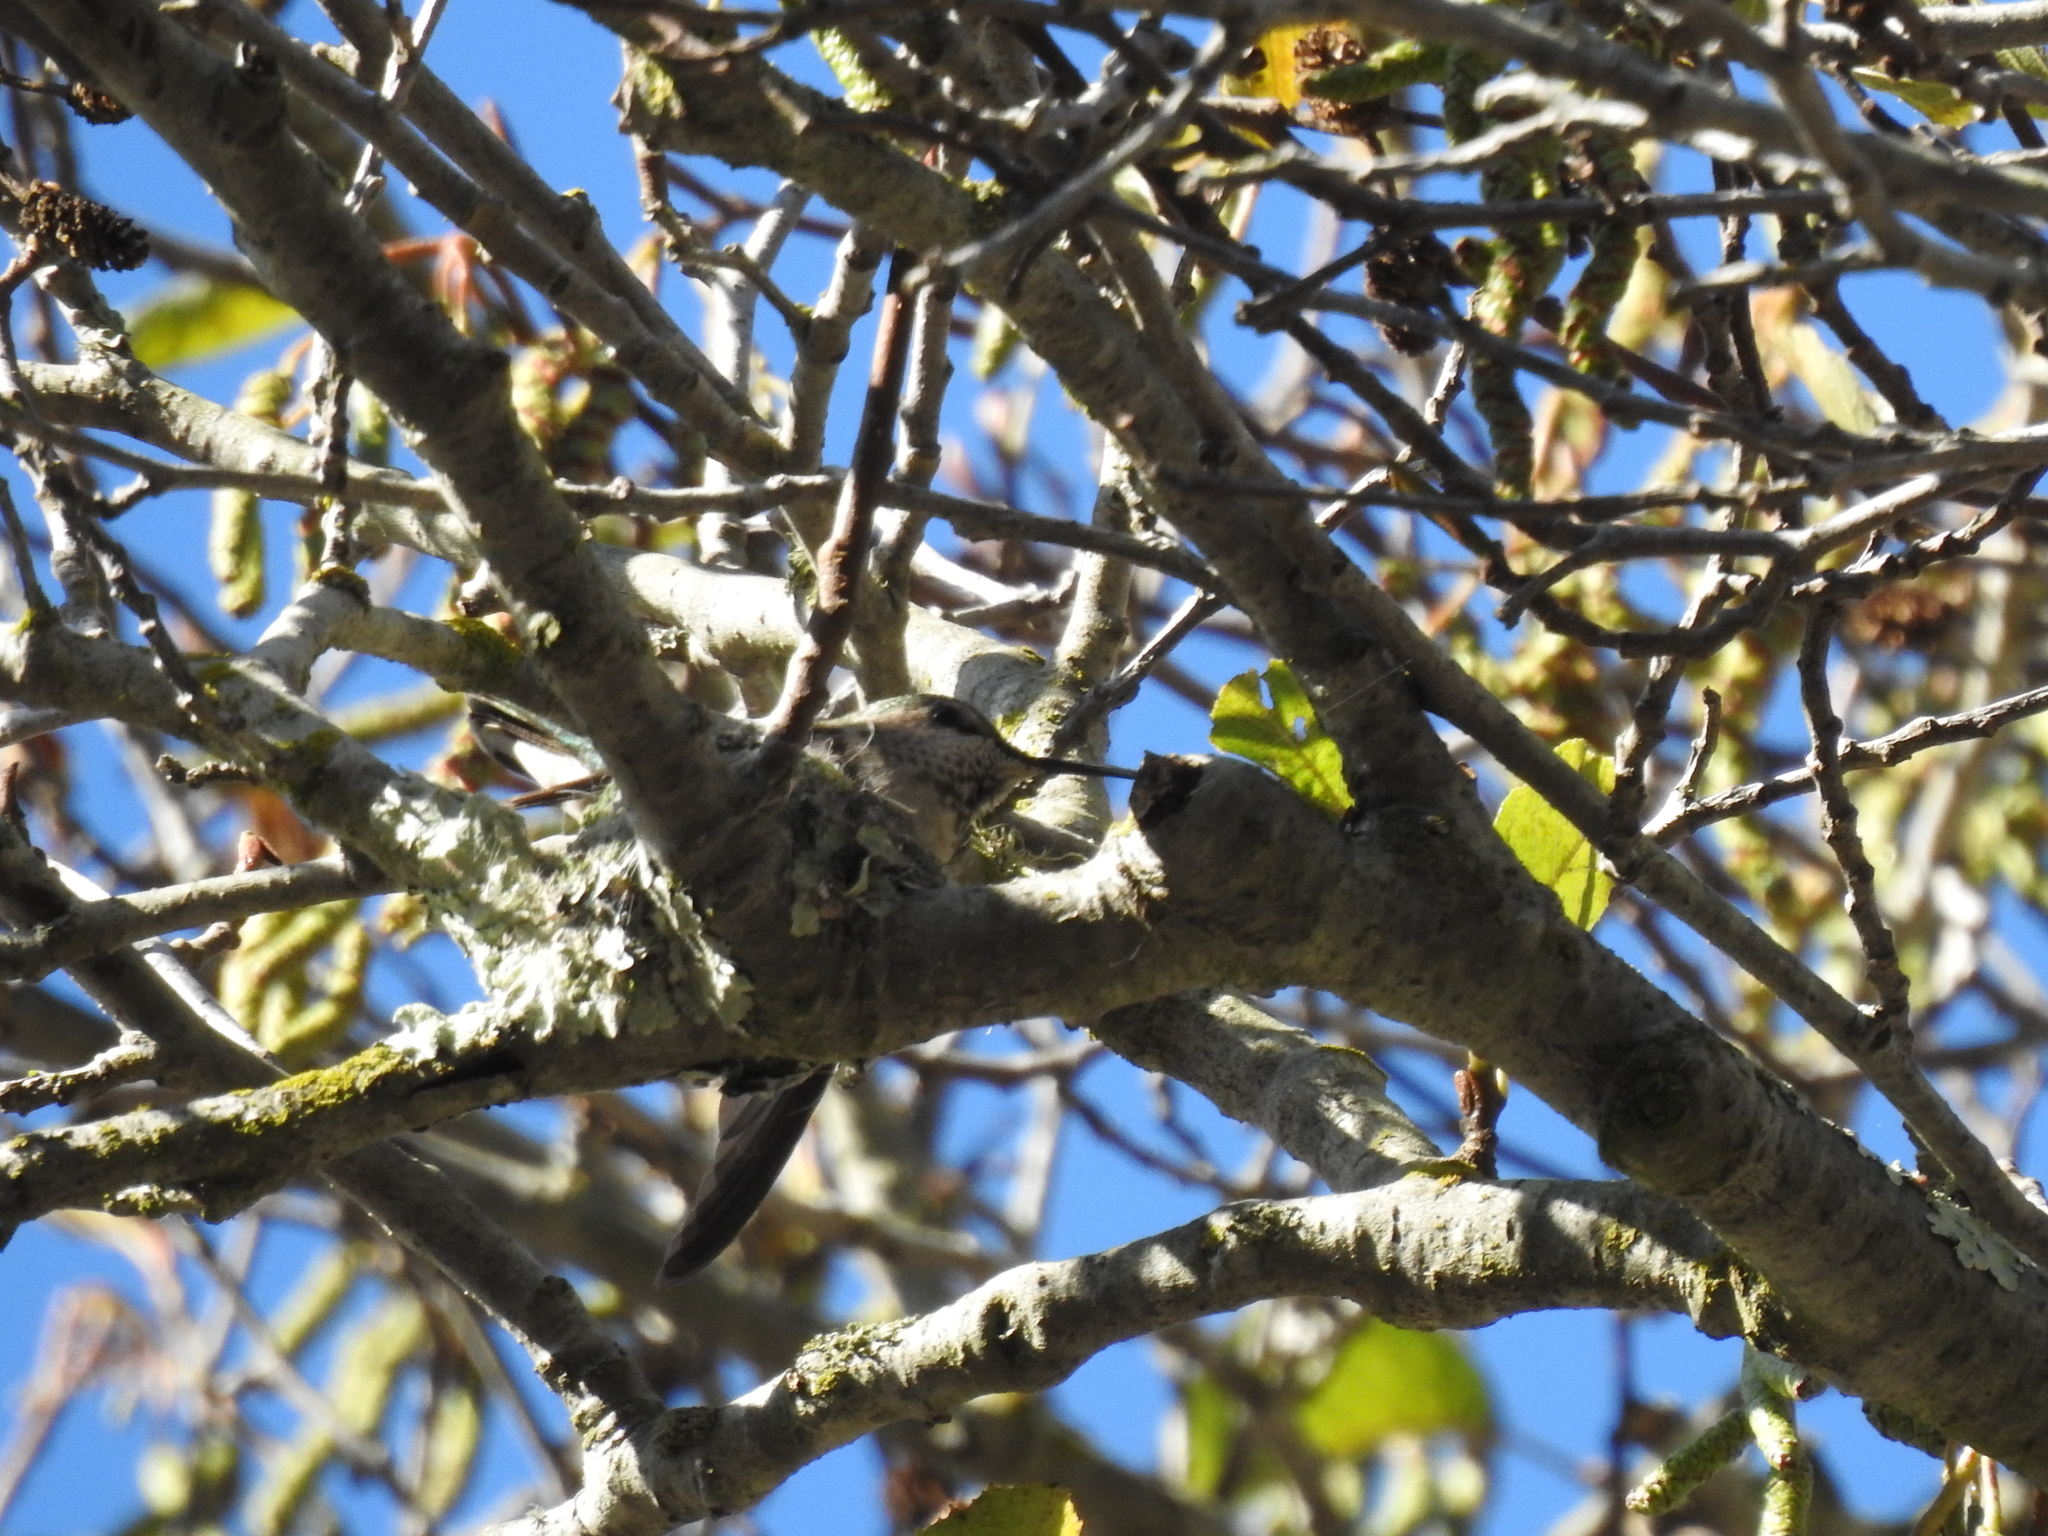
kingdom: Animalia
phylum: Chordata
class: Aves
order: Apodiformes
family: Trochilidae
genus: Calypte
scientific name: Calypte anna
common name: Anna's hummingbird
